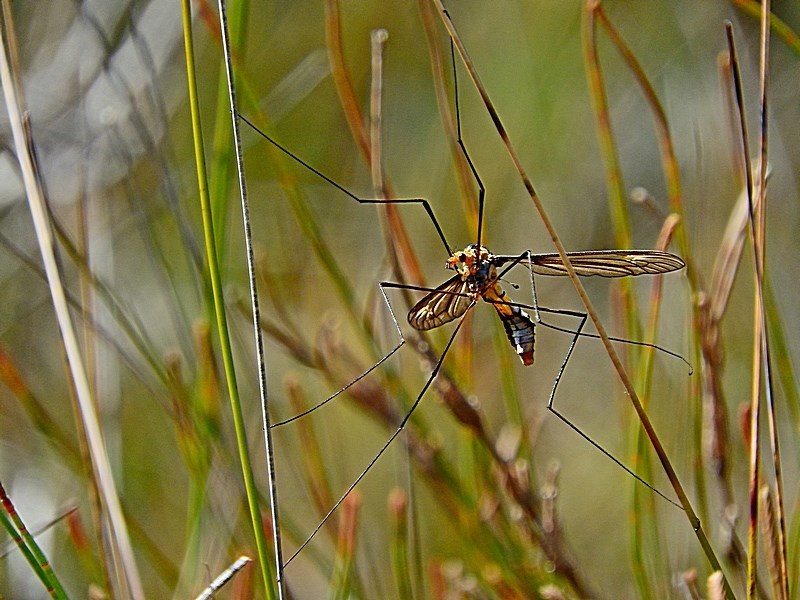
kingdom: Animalia
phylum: Arthropoda
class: Insecta
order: Diptera
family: Tipulidae
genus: Leptotarsus
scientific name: Leptotarsus clavatus
